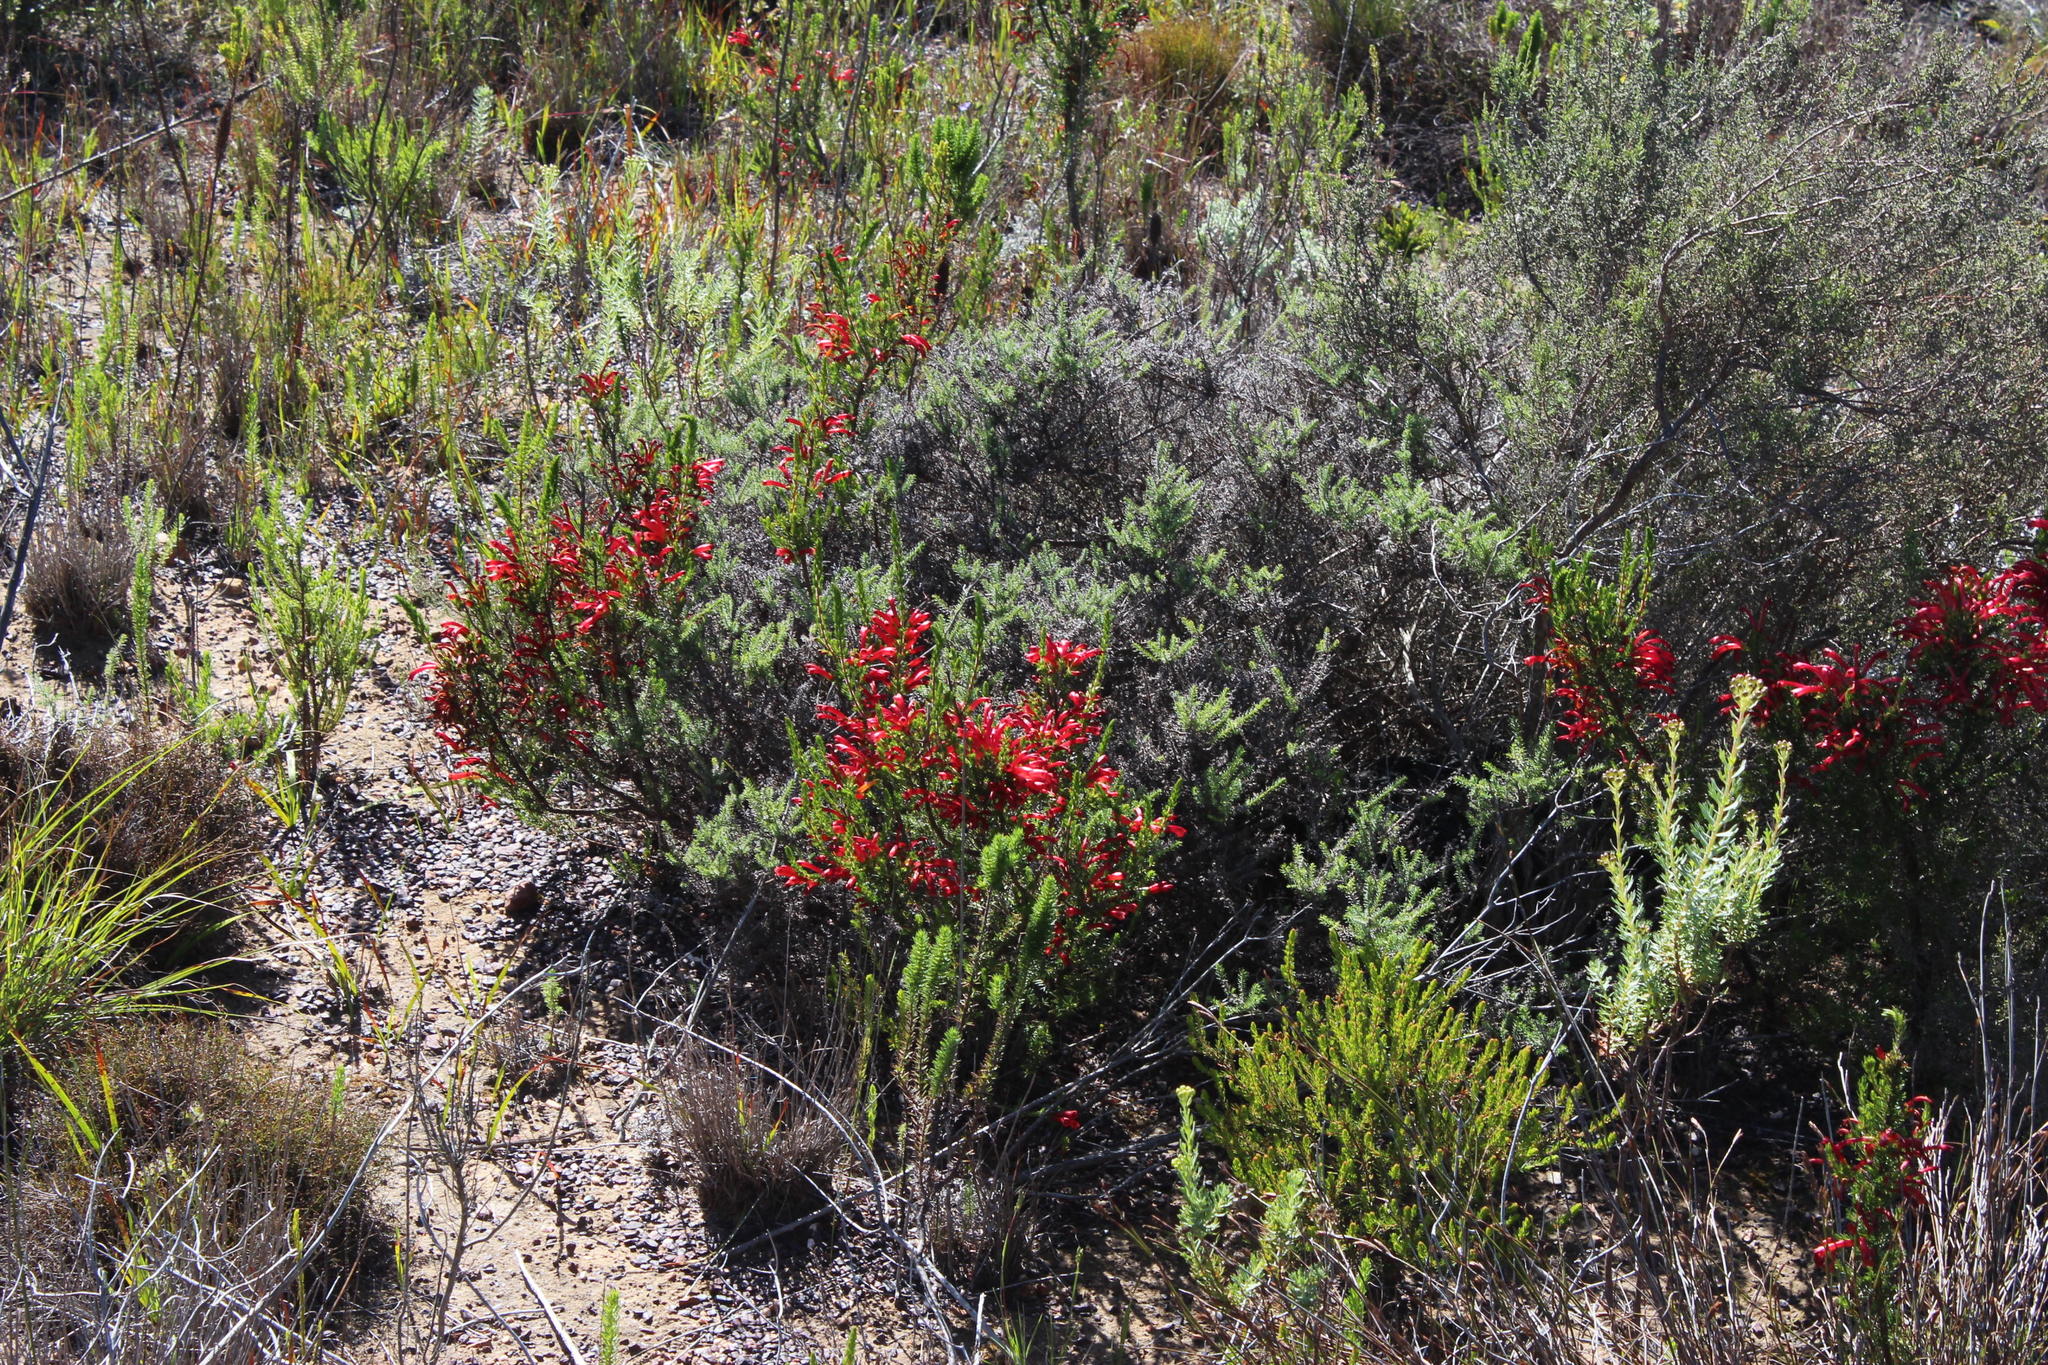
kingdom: Plantae
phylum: Tracheophyta
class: Magnoliopsida
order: Ericales
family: Ericaceae
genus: Erica
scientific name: Erica cruenta
